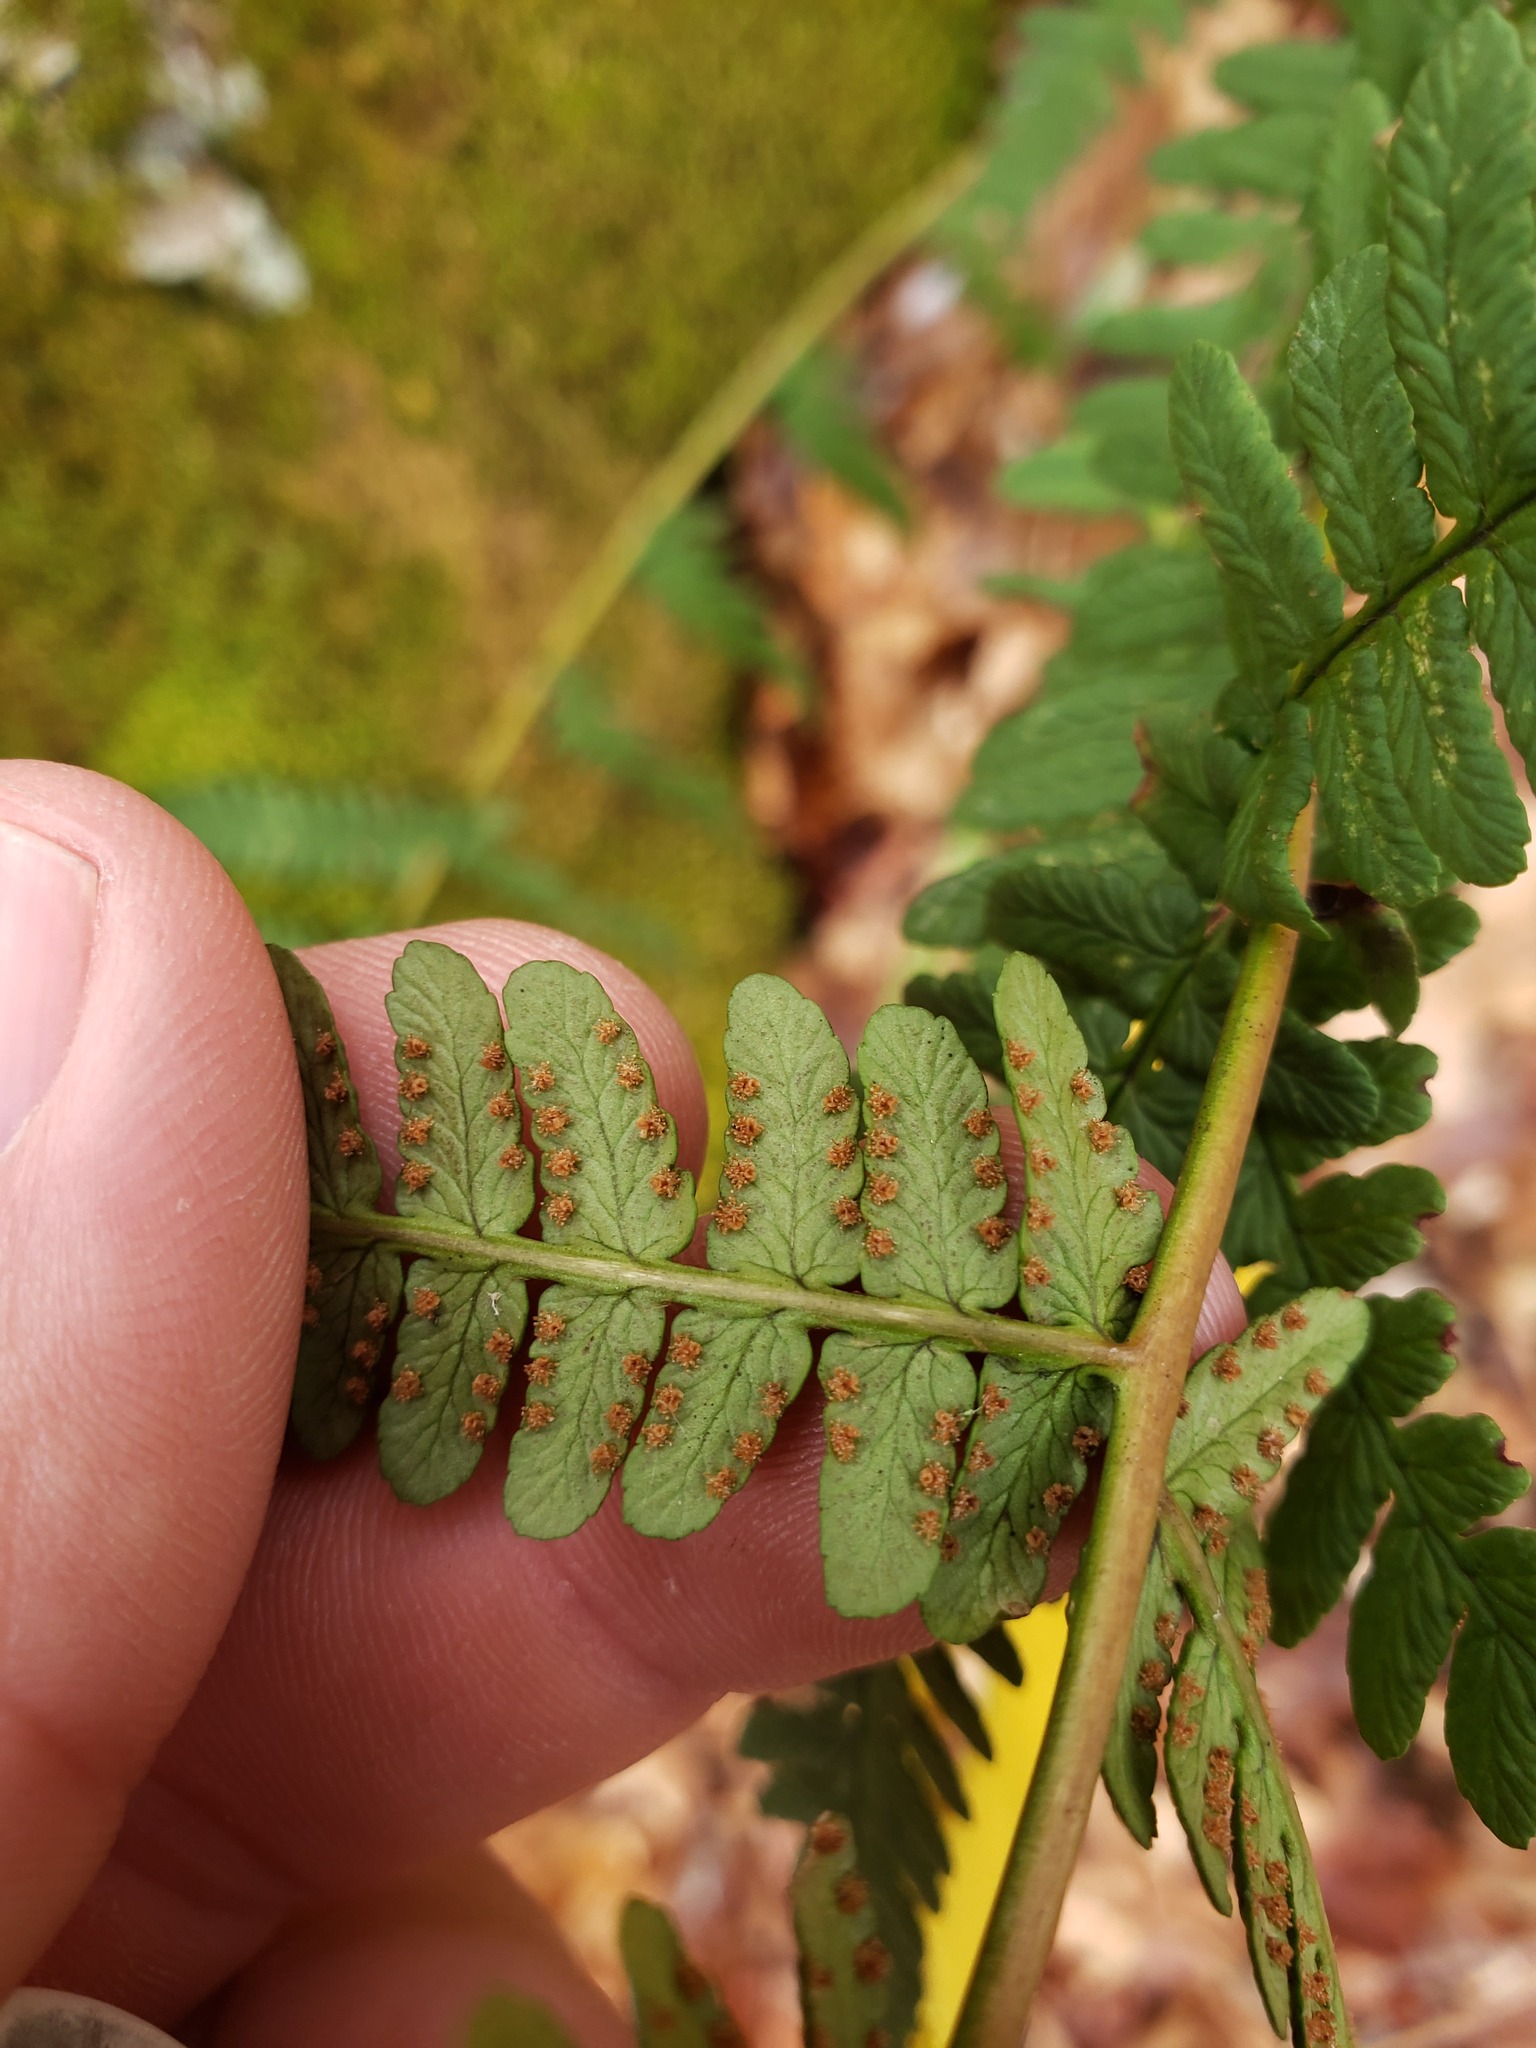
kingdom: Plantae
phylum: Tracheophyta
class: Polypodiopsida
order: Polypodiales
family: Dryopteridaceae
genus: Dryopteris
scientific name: Dryopteris marginalis
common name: Marginal wood fern
